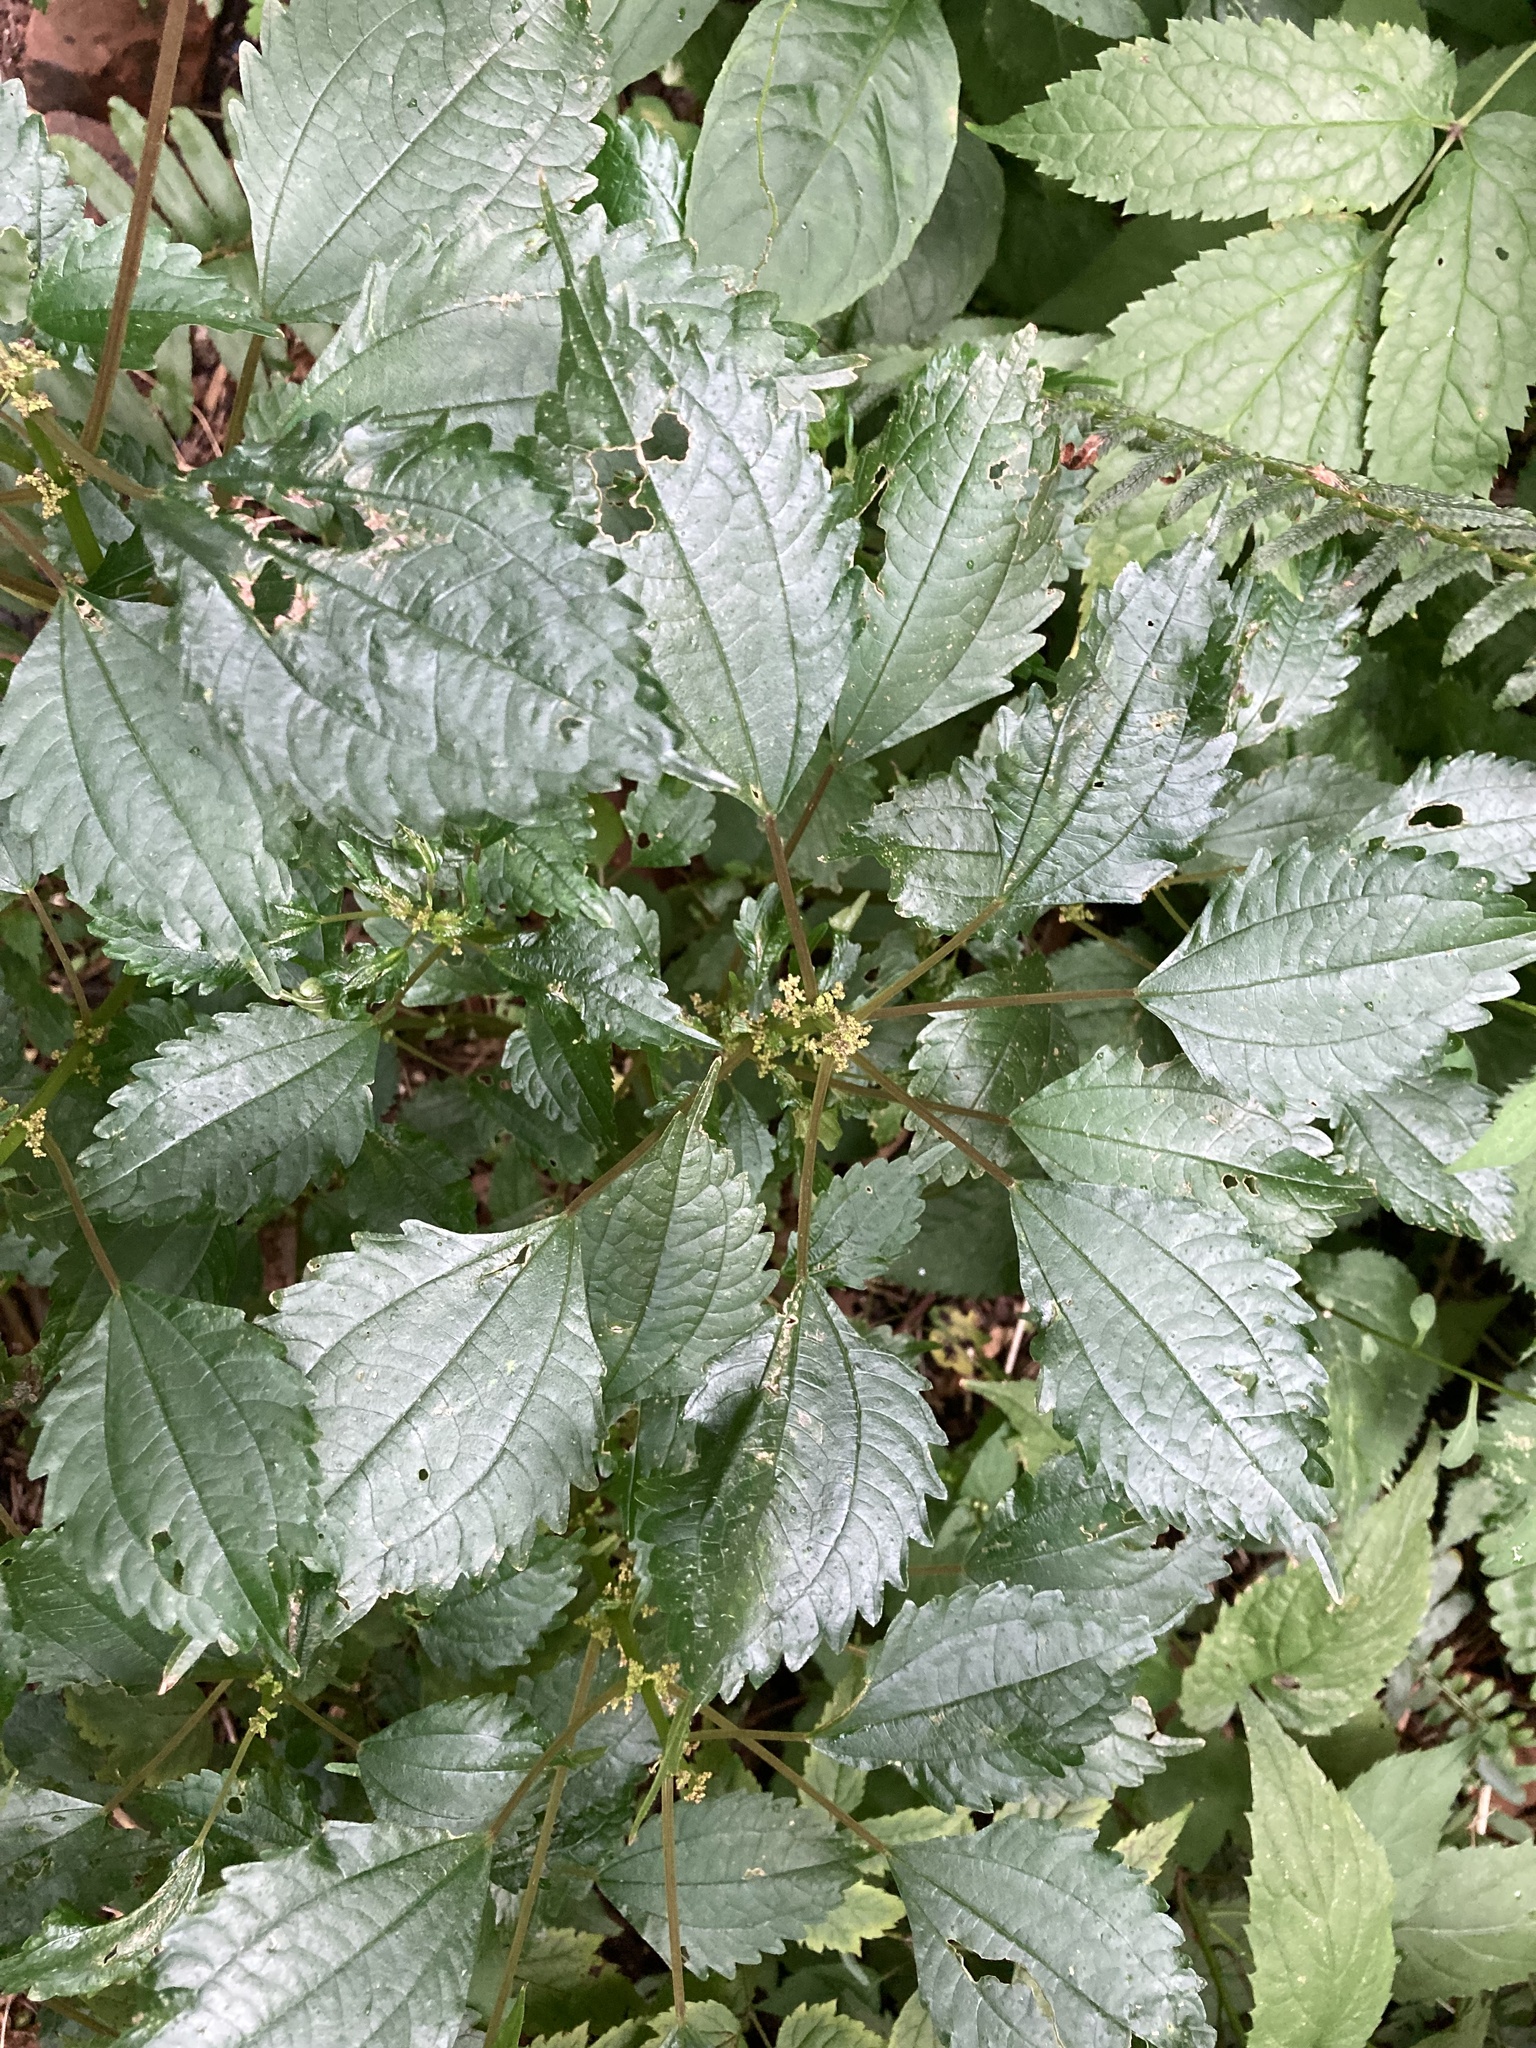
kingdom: Plantae
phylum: Tracheophyta
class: Magnoliopsida
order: Rosales
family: Urticaceae
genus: Pilea
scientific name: Pilea pumila
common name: Clearweed
